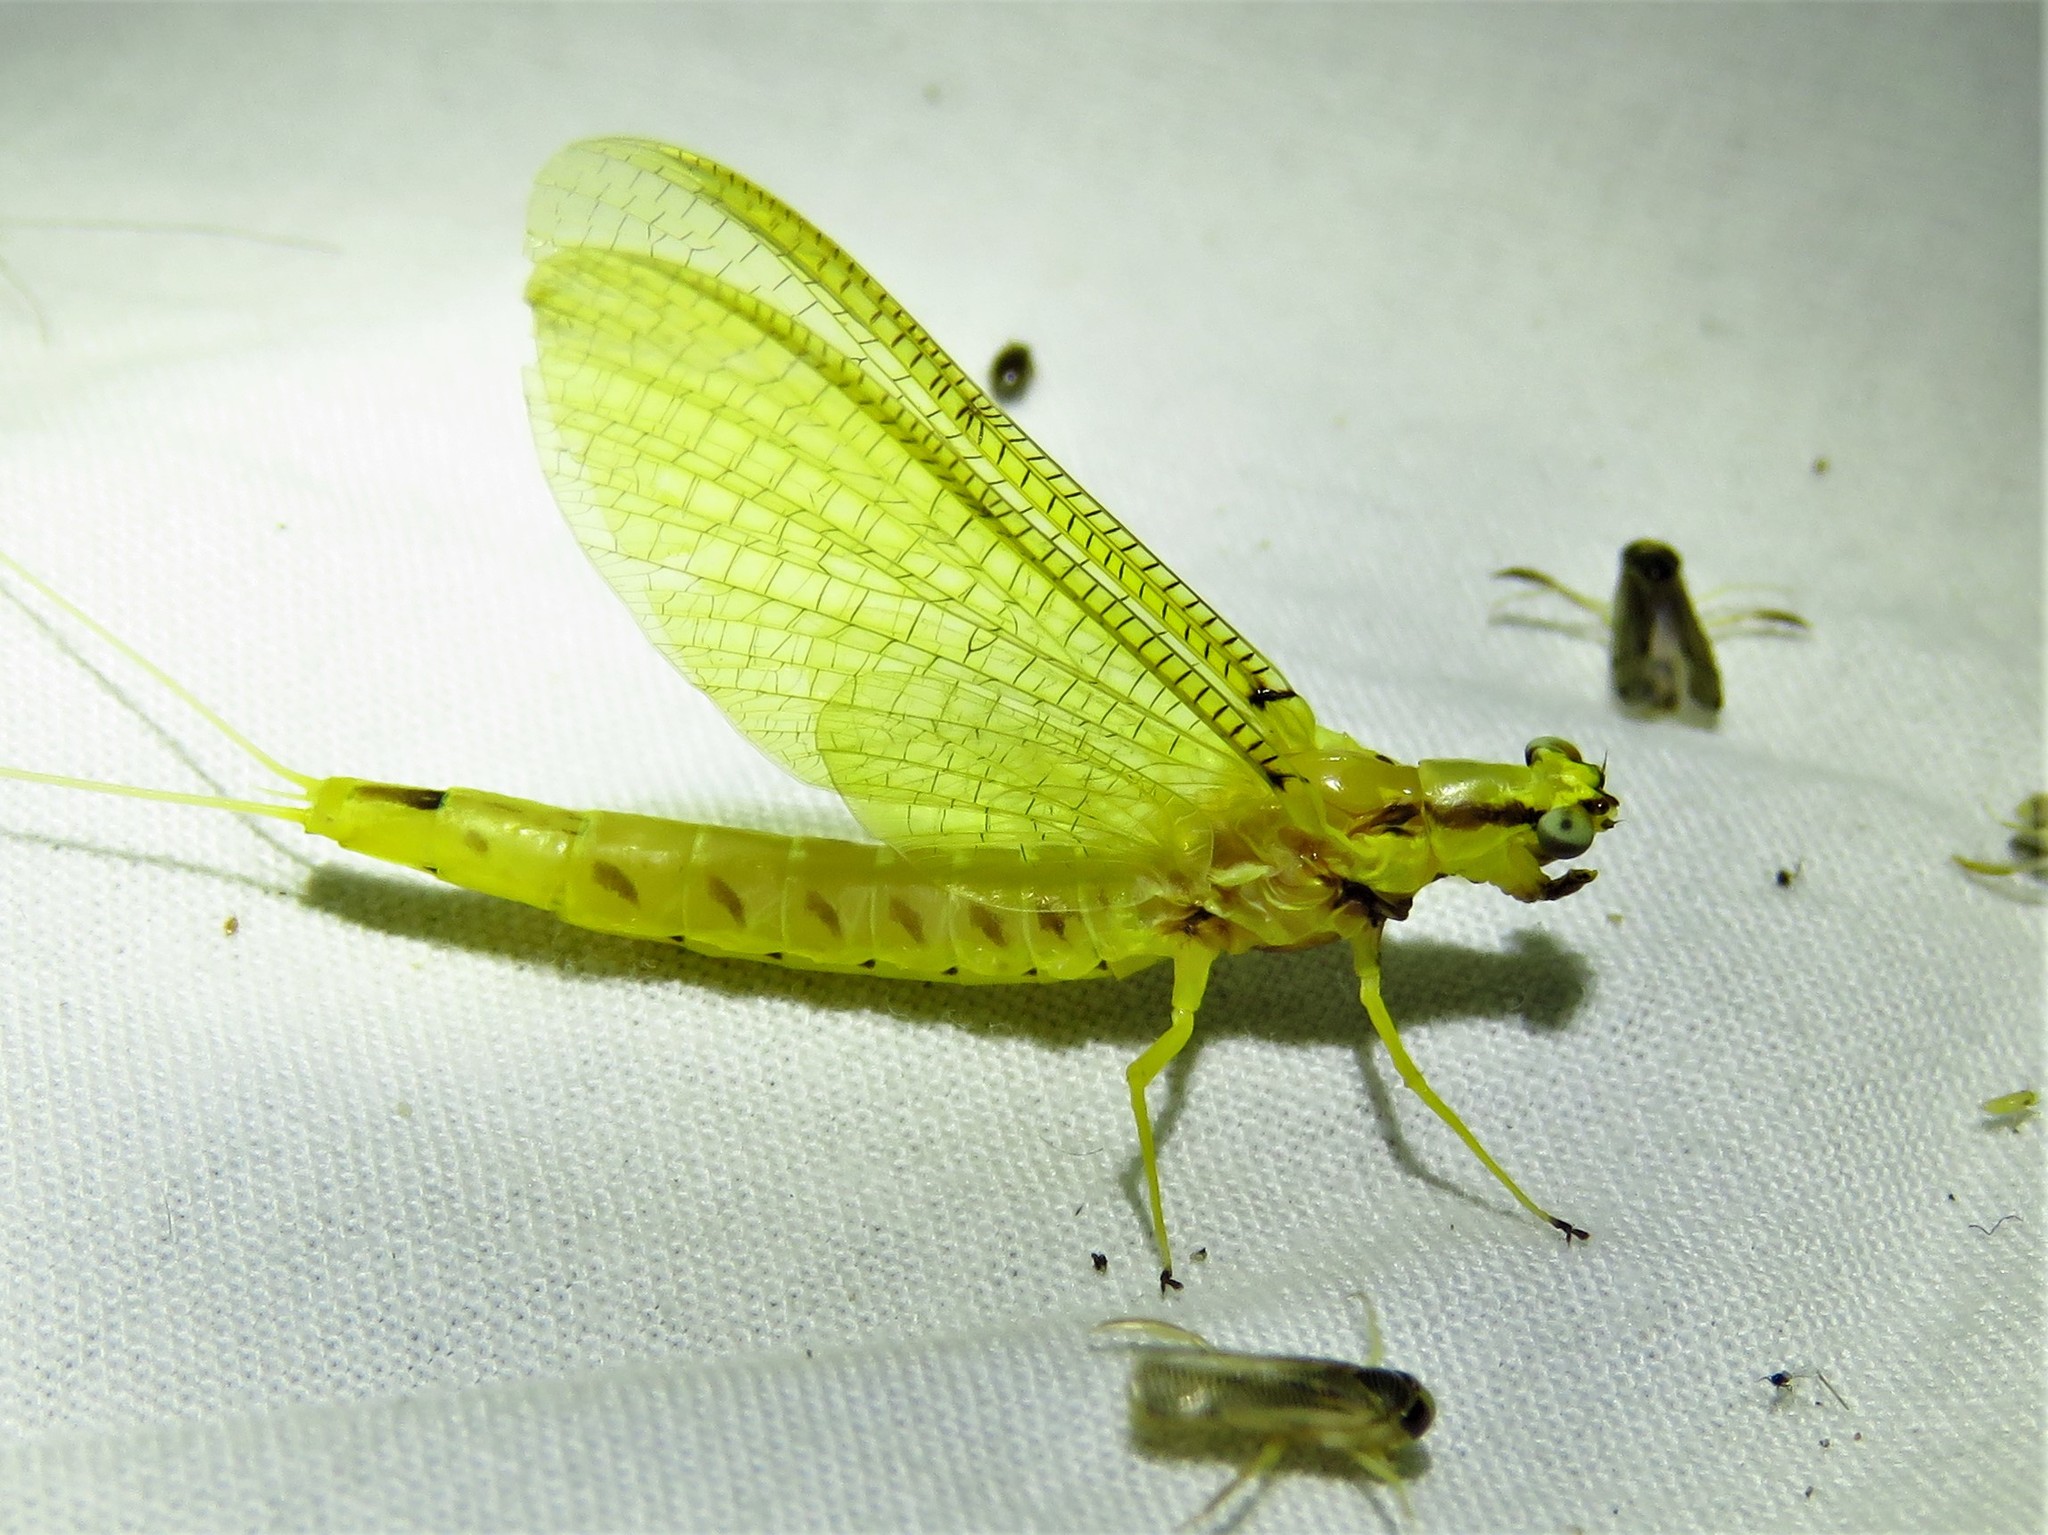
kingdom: Animalia
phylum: Arthropoda
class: Insecta
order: Ephemeroptera
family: Ephemeridae
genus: Hexagenia
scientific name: Hexagenia limbata
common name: Giant mayfly
